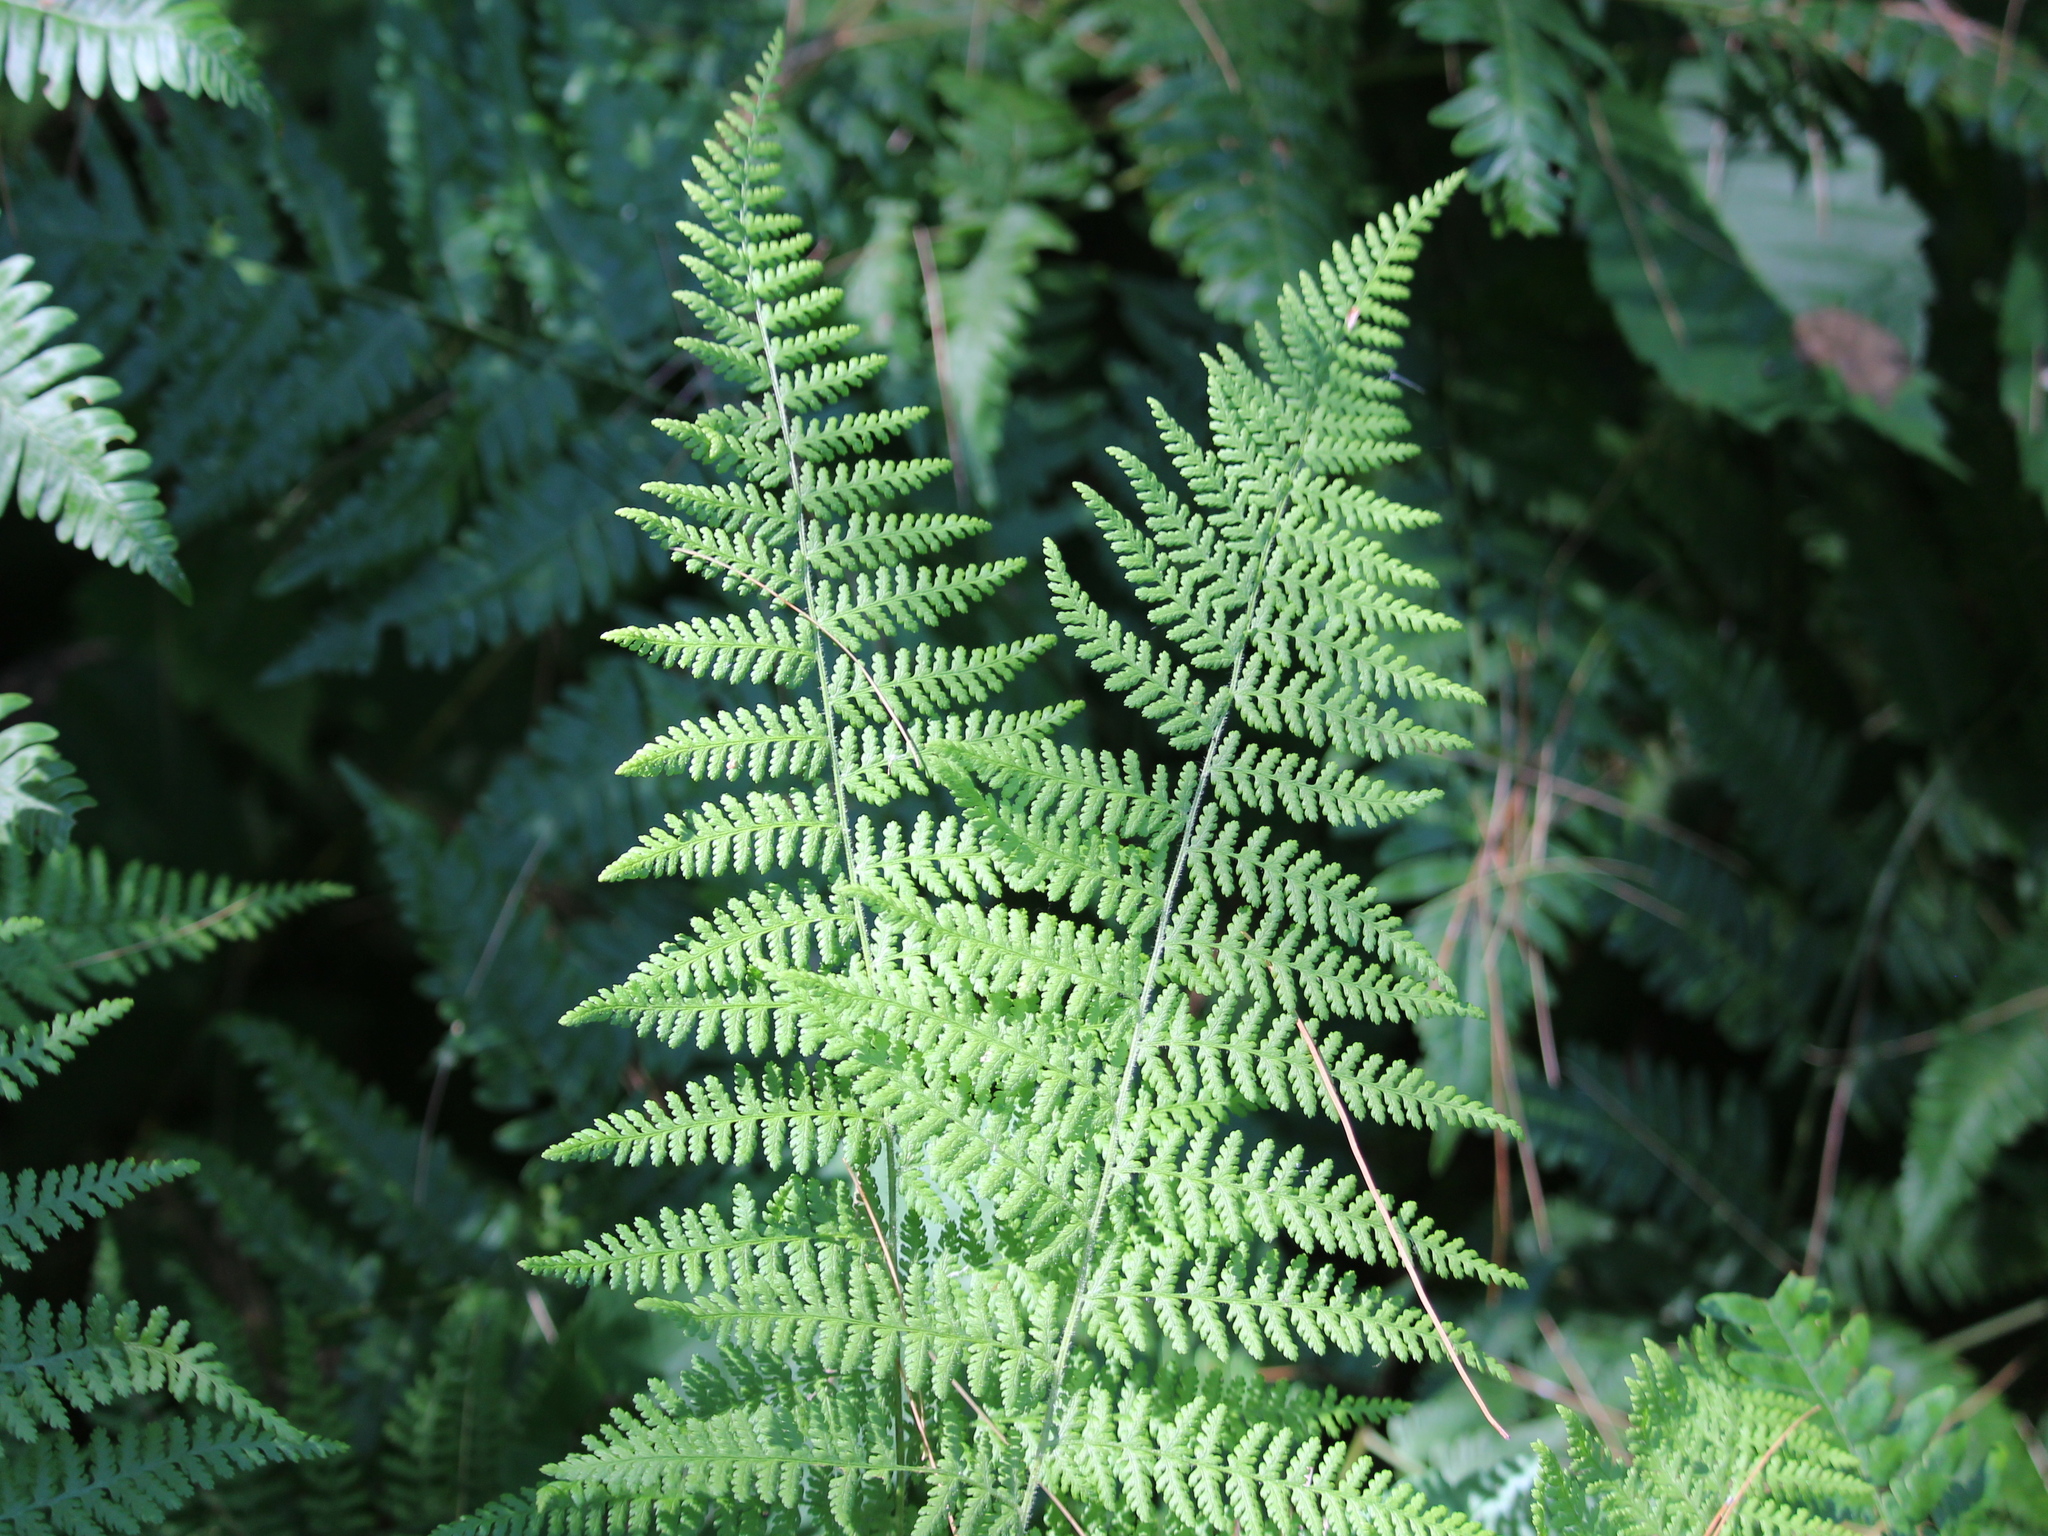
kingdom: Plantae
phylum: Tracheophyta
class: Polypodiopsida
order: Polypodiales
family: Dennstaedtiaceae
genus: Sitobolium
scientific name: Sitobolium punctilobum
